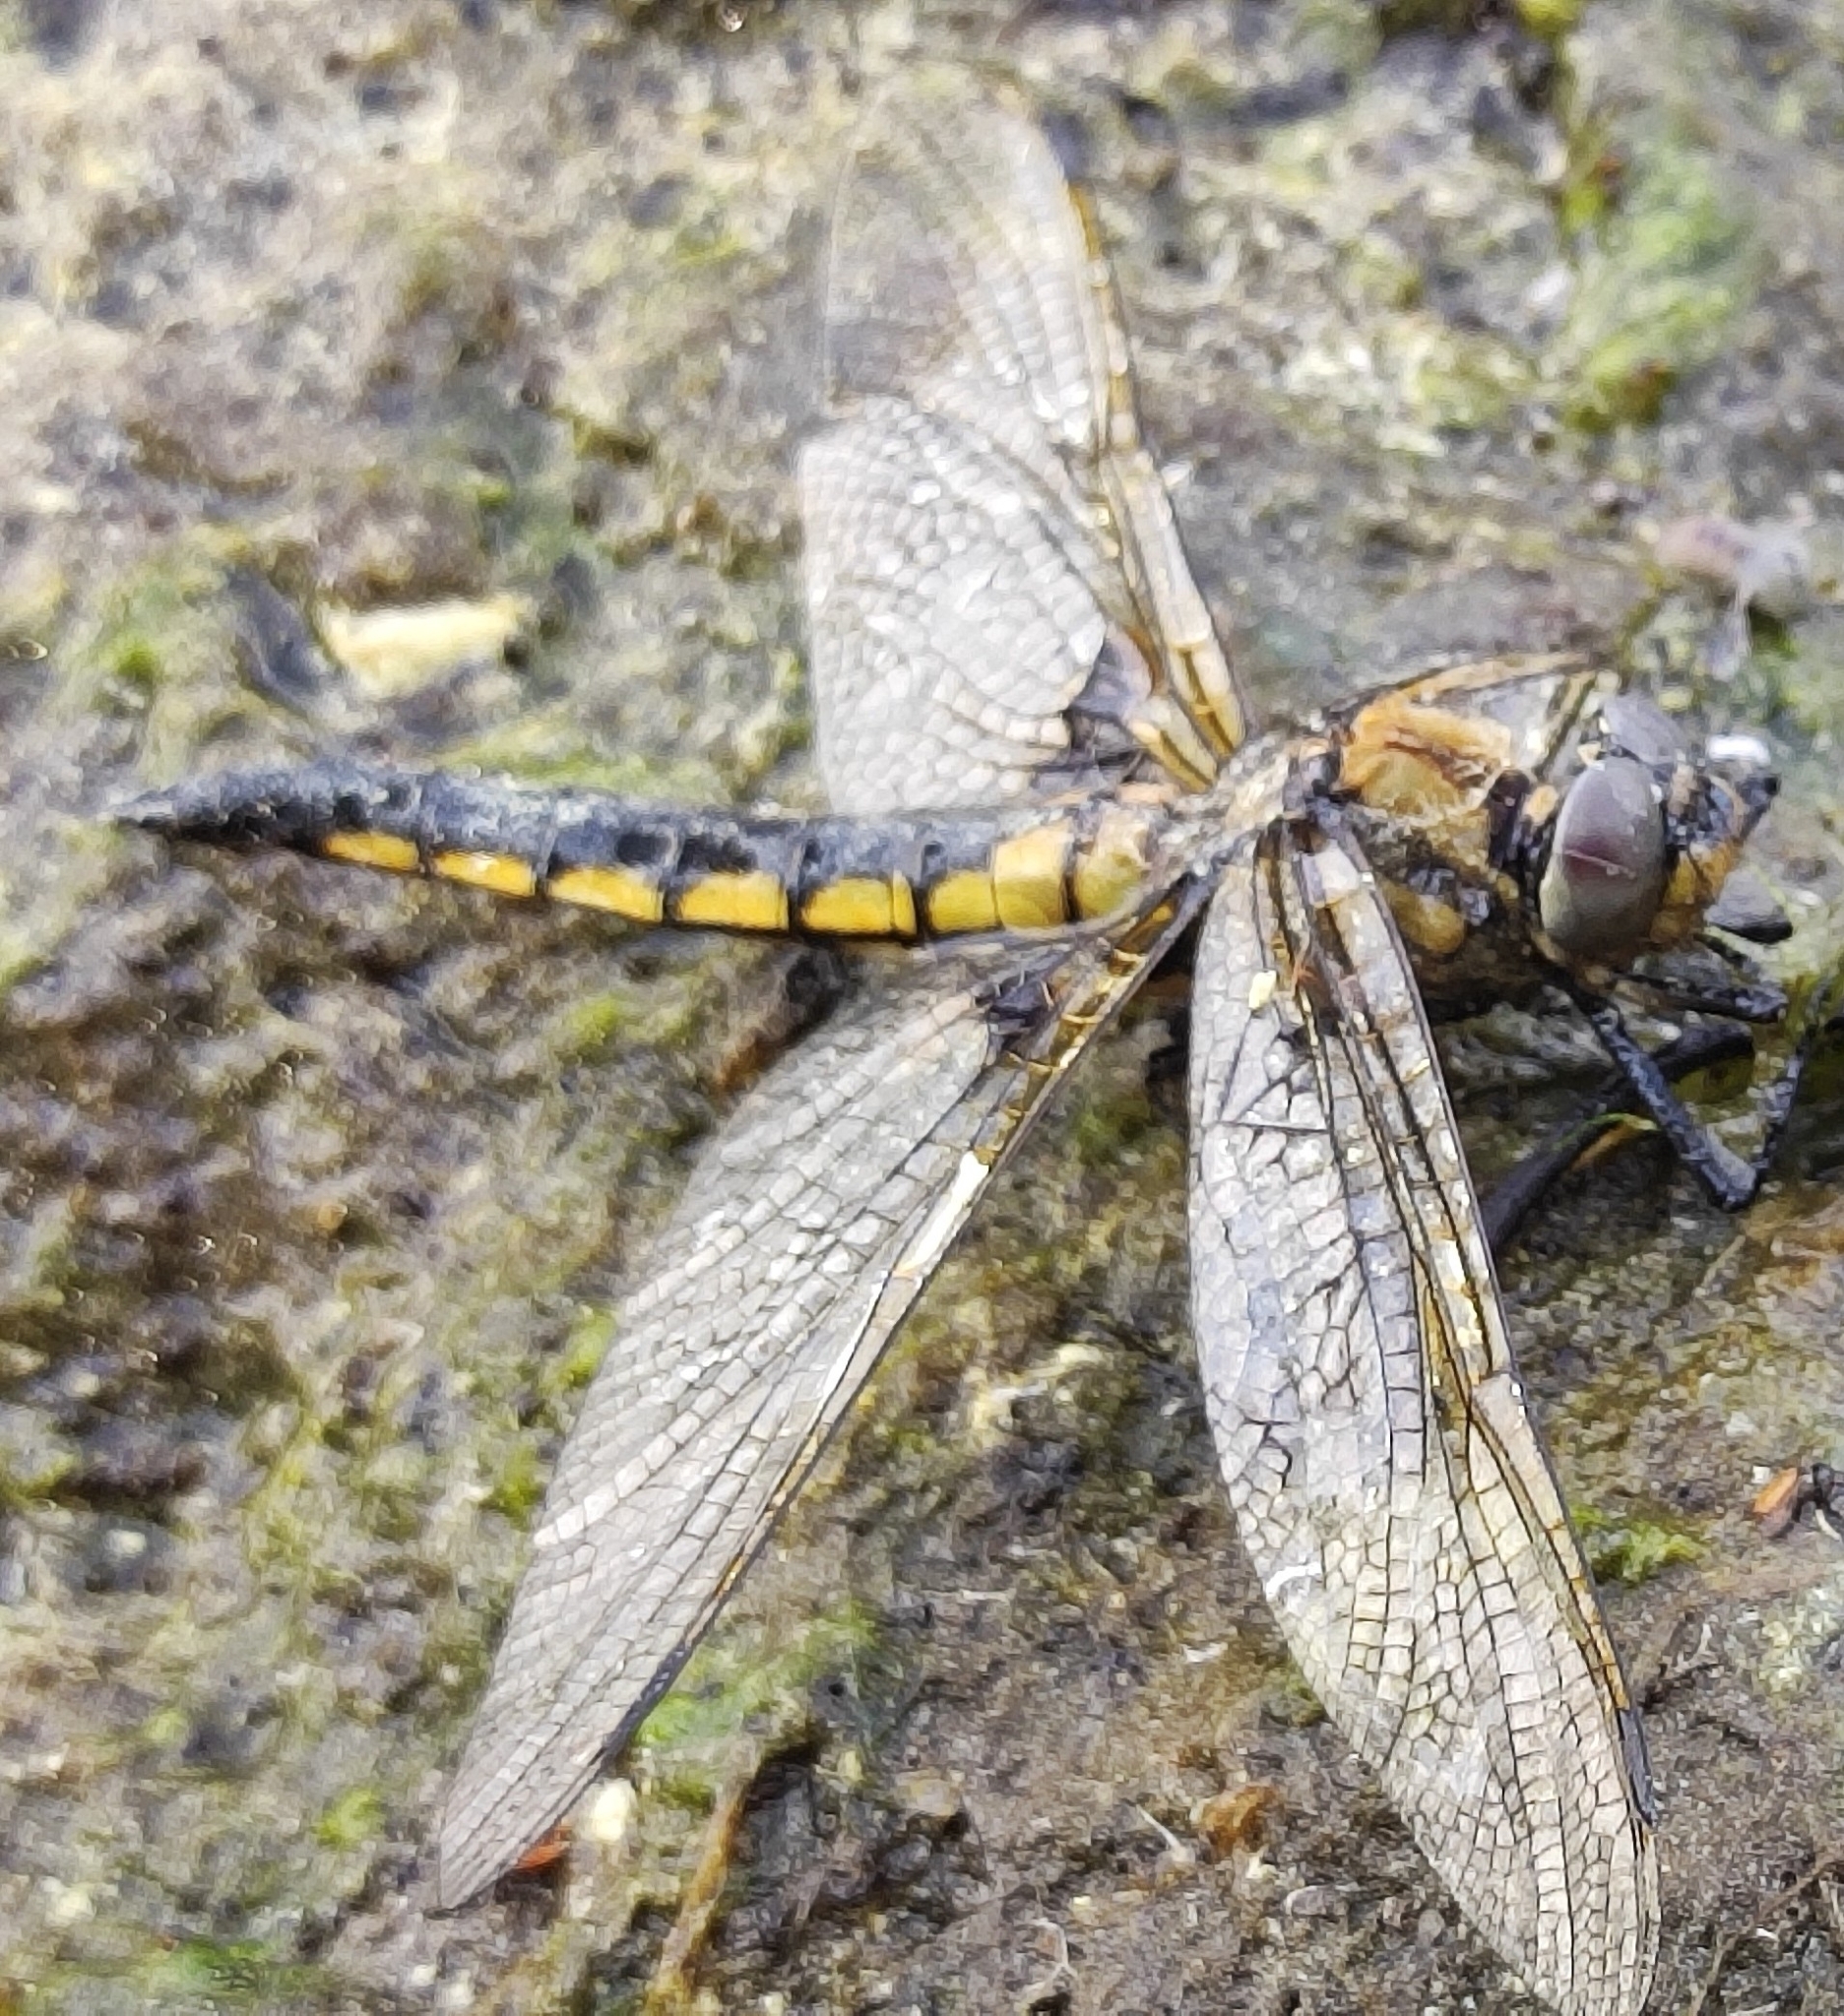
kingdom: Animalia
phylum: Arthropoda
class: Insecta
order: Odonata
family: Corduliidae
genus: Epitheca
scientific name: Epitheca bimaculata
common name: Eurasian baskettail
